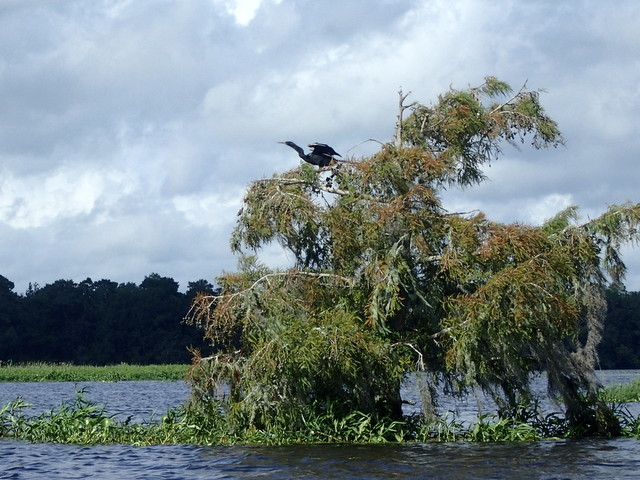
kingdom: Animalia
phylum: Chordata
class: Aves
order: Suliformes
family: Anhingidae
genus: Anhinga
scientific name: Anhinga anhinga
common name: Anhinga
